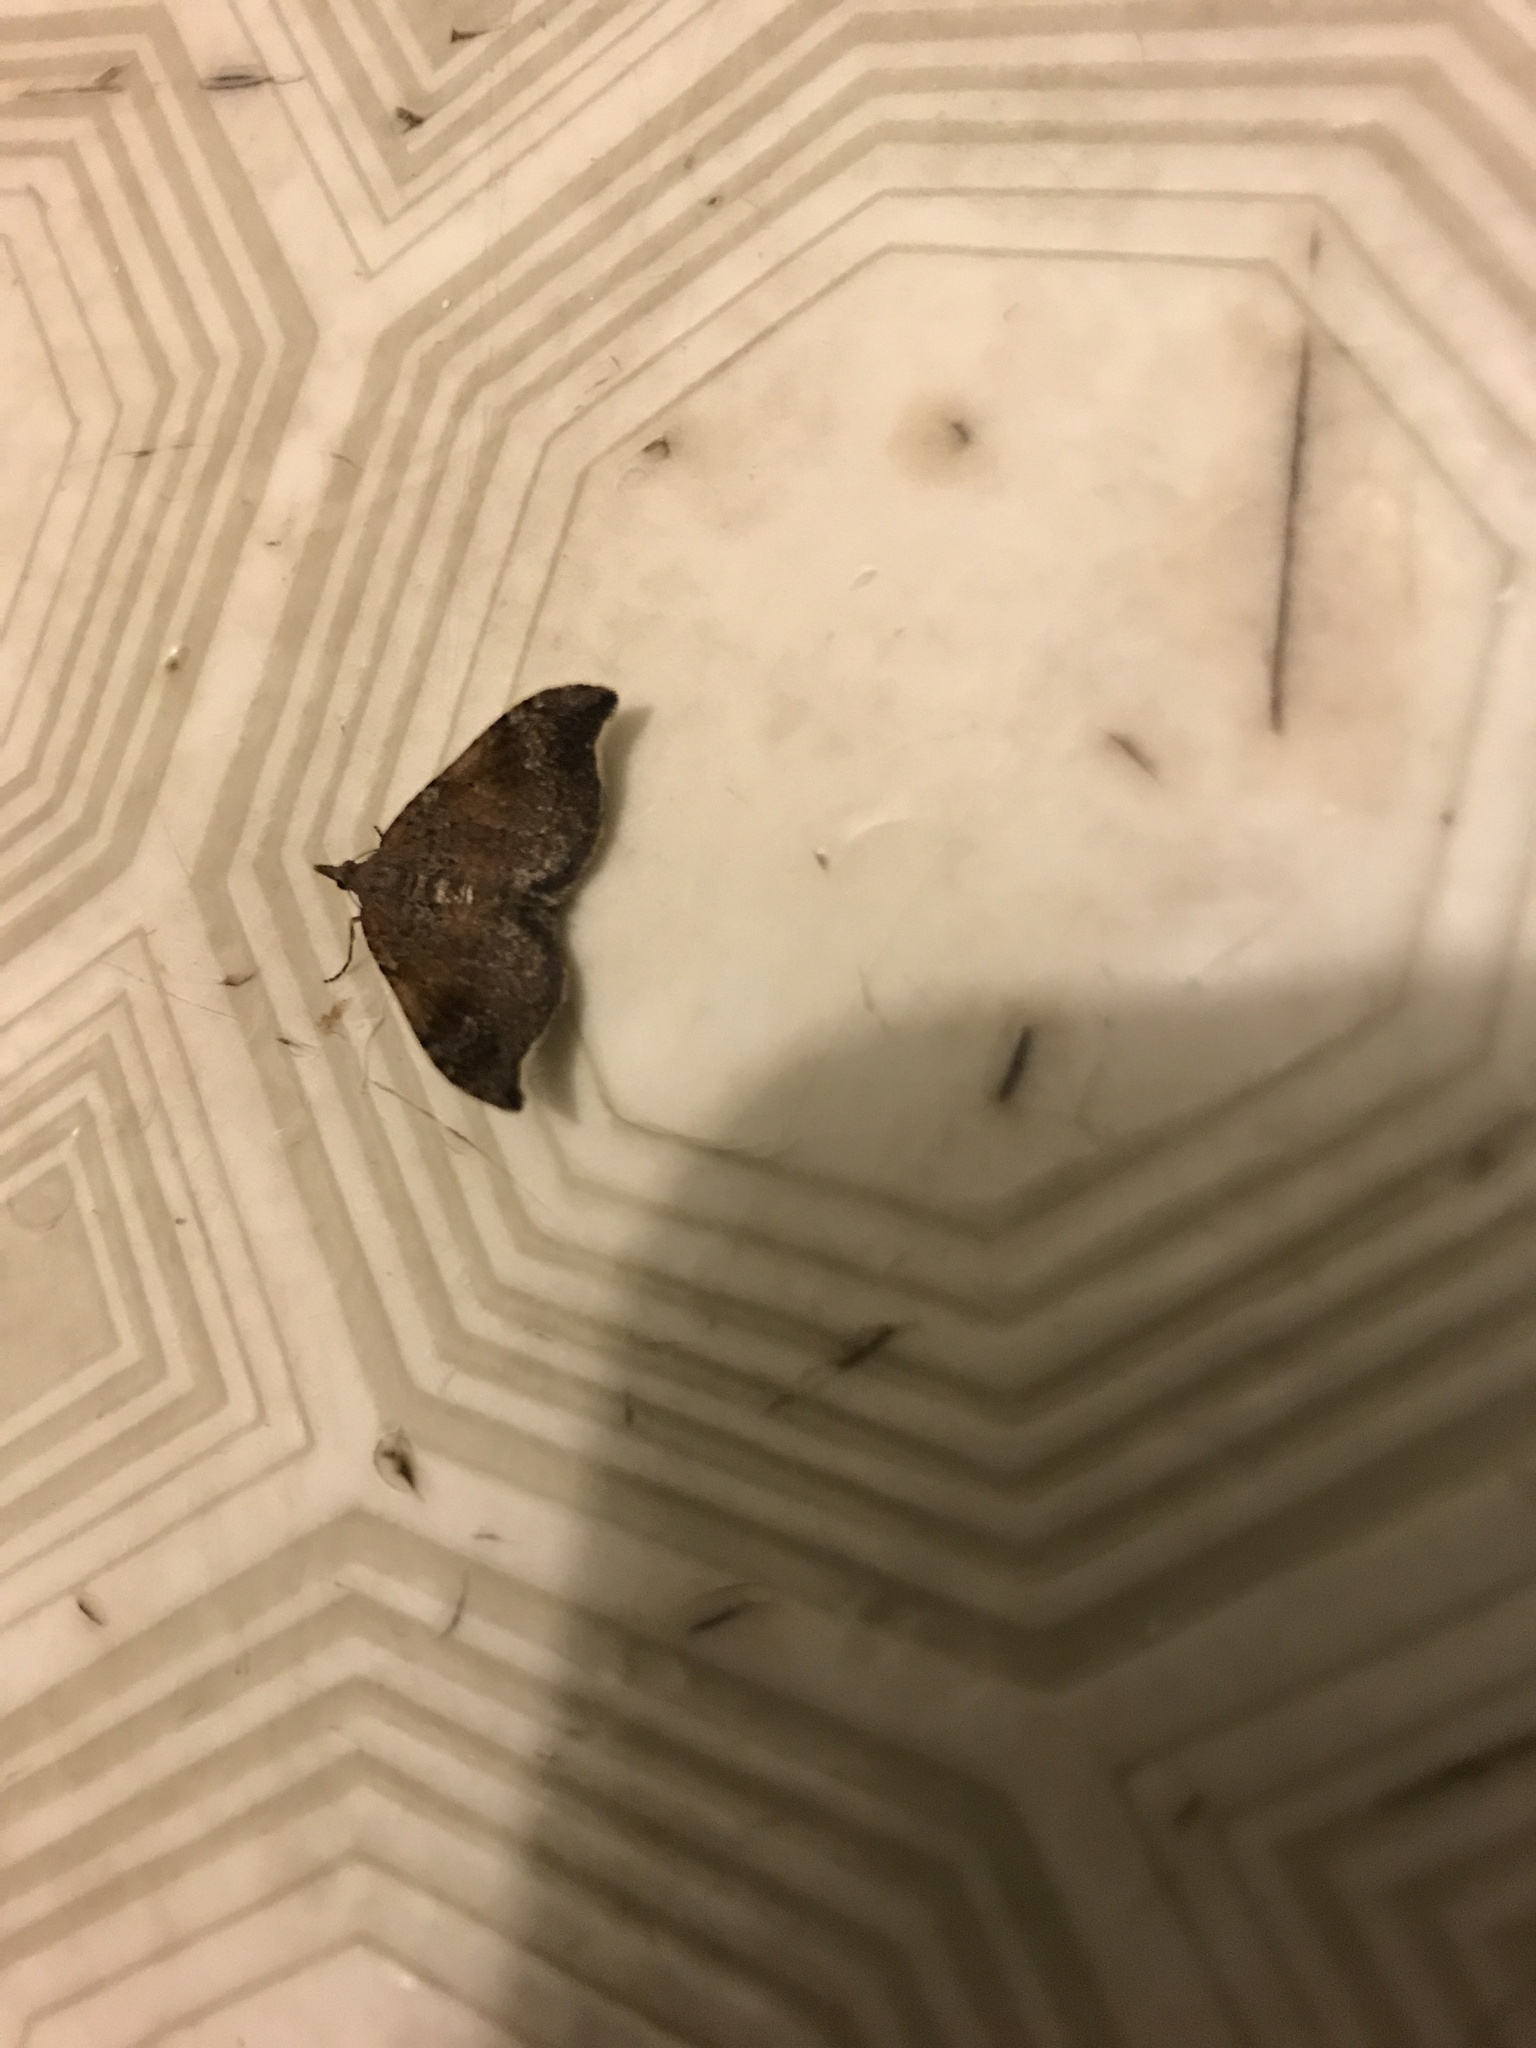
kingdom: Animalia
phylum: Arthropoda
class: Insecta
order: Lepidoptera
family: Geometridae
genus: Homodotis
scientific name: Homodotis megaspilata
